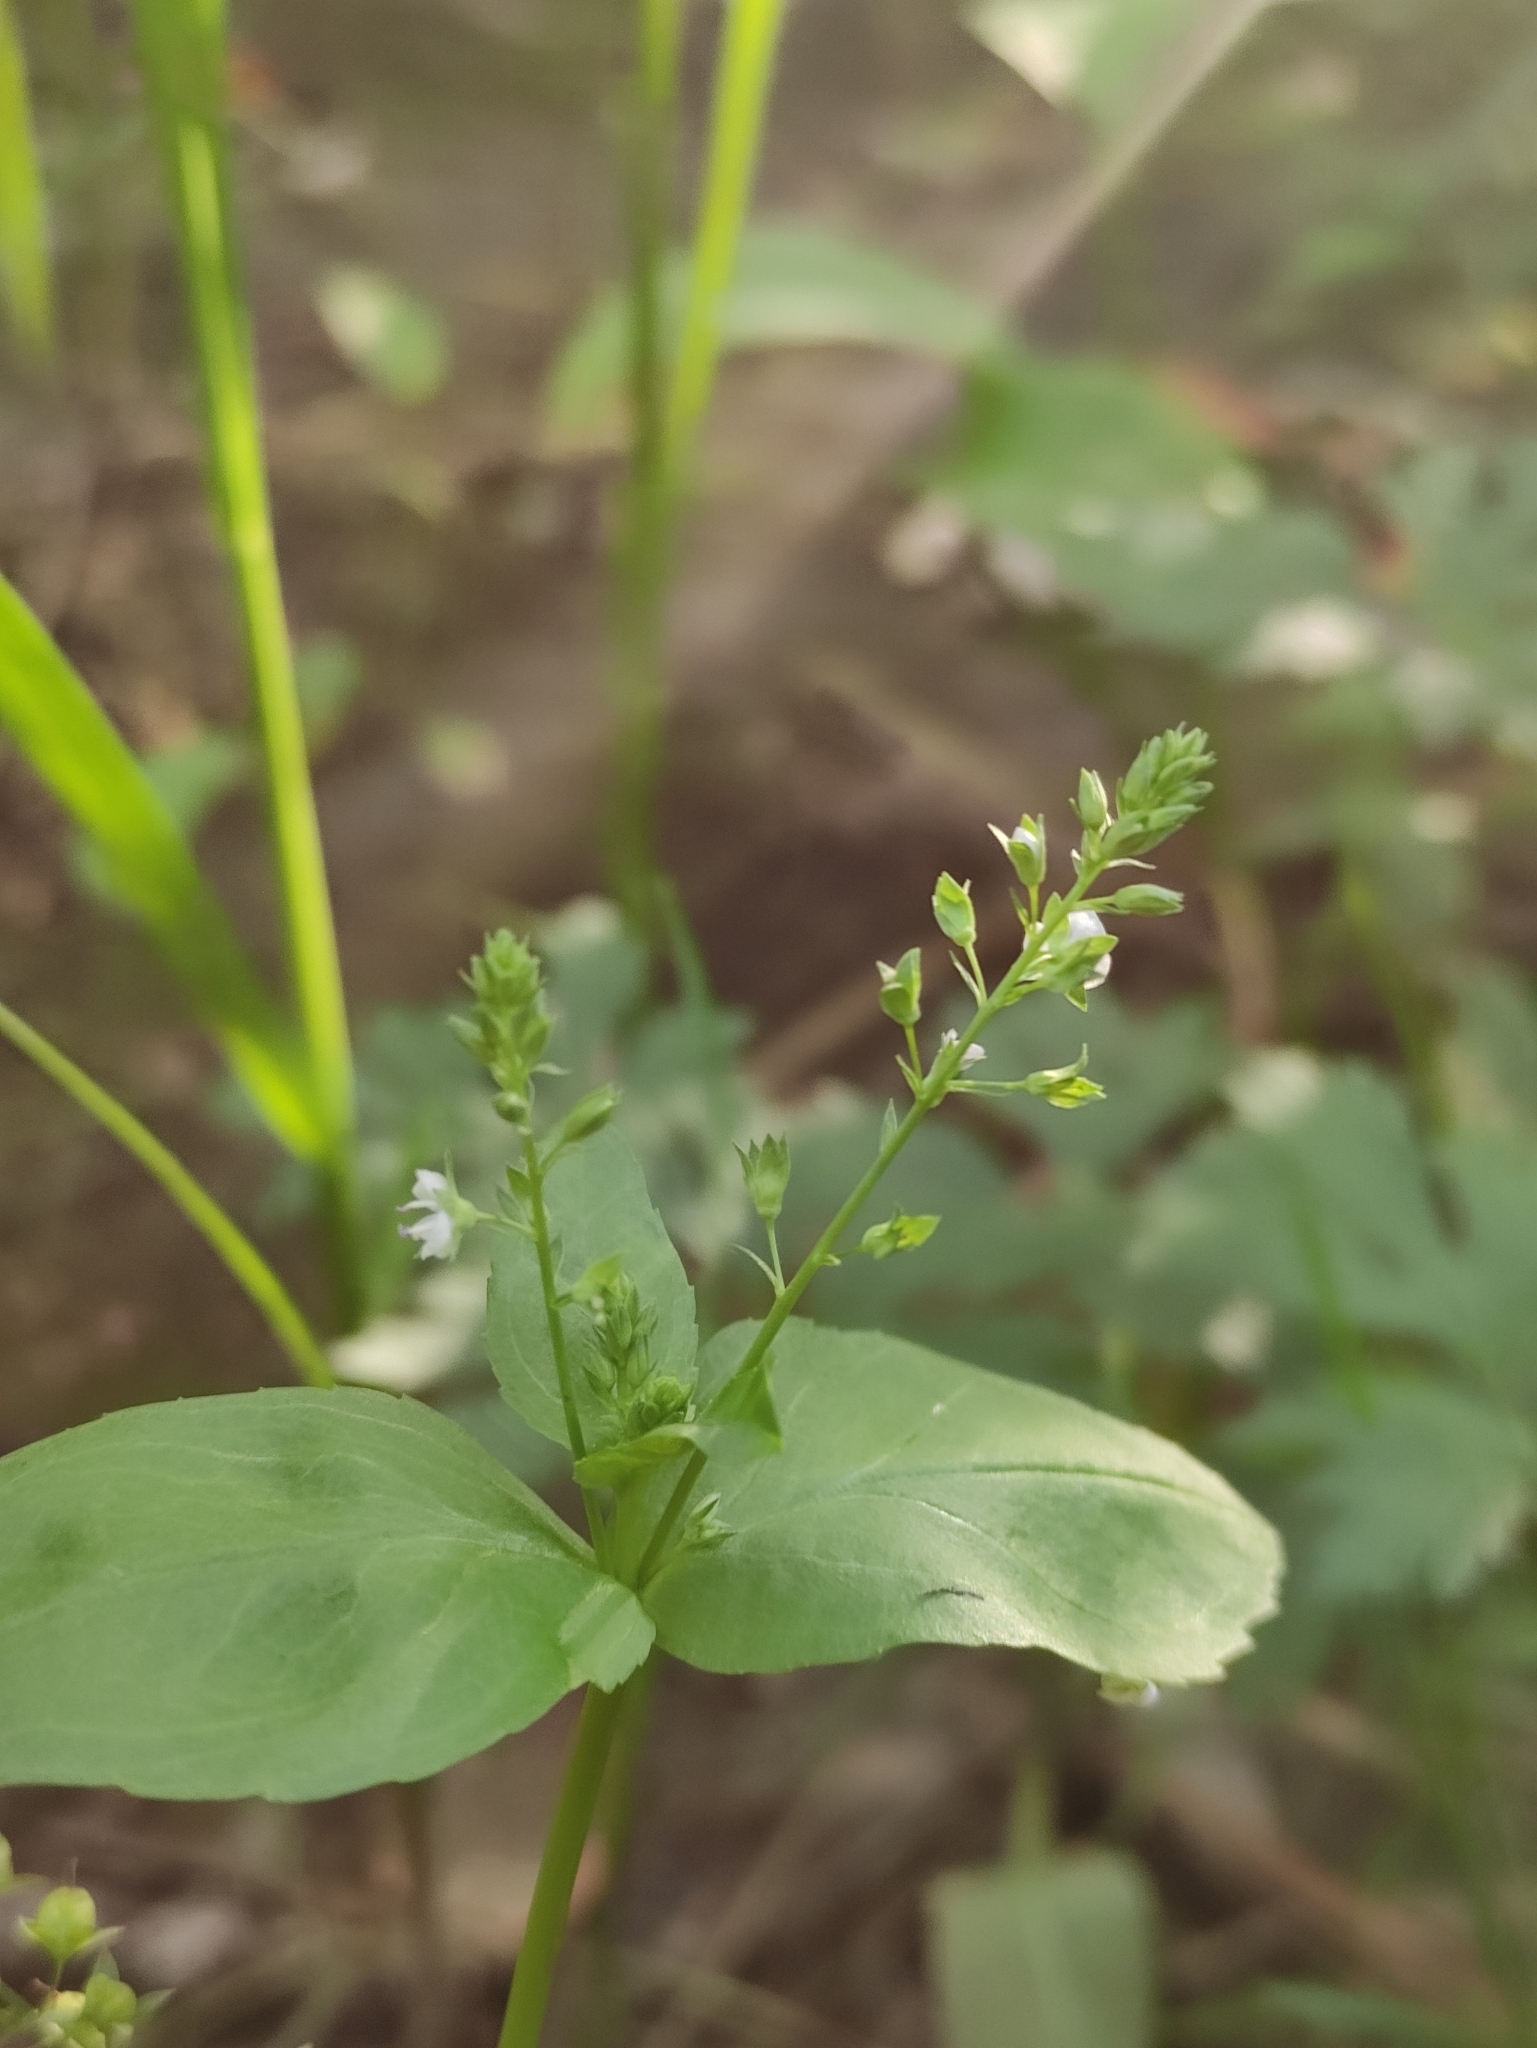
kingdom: Plantae
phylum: Tracheophyta
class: Magnoliopsida
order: Lamiales
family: Plantaginaceae
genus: Veronica
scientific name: Veronica anagallis-aquatica
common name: Water speedwell
